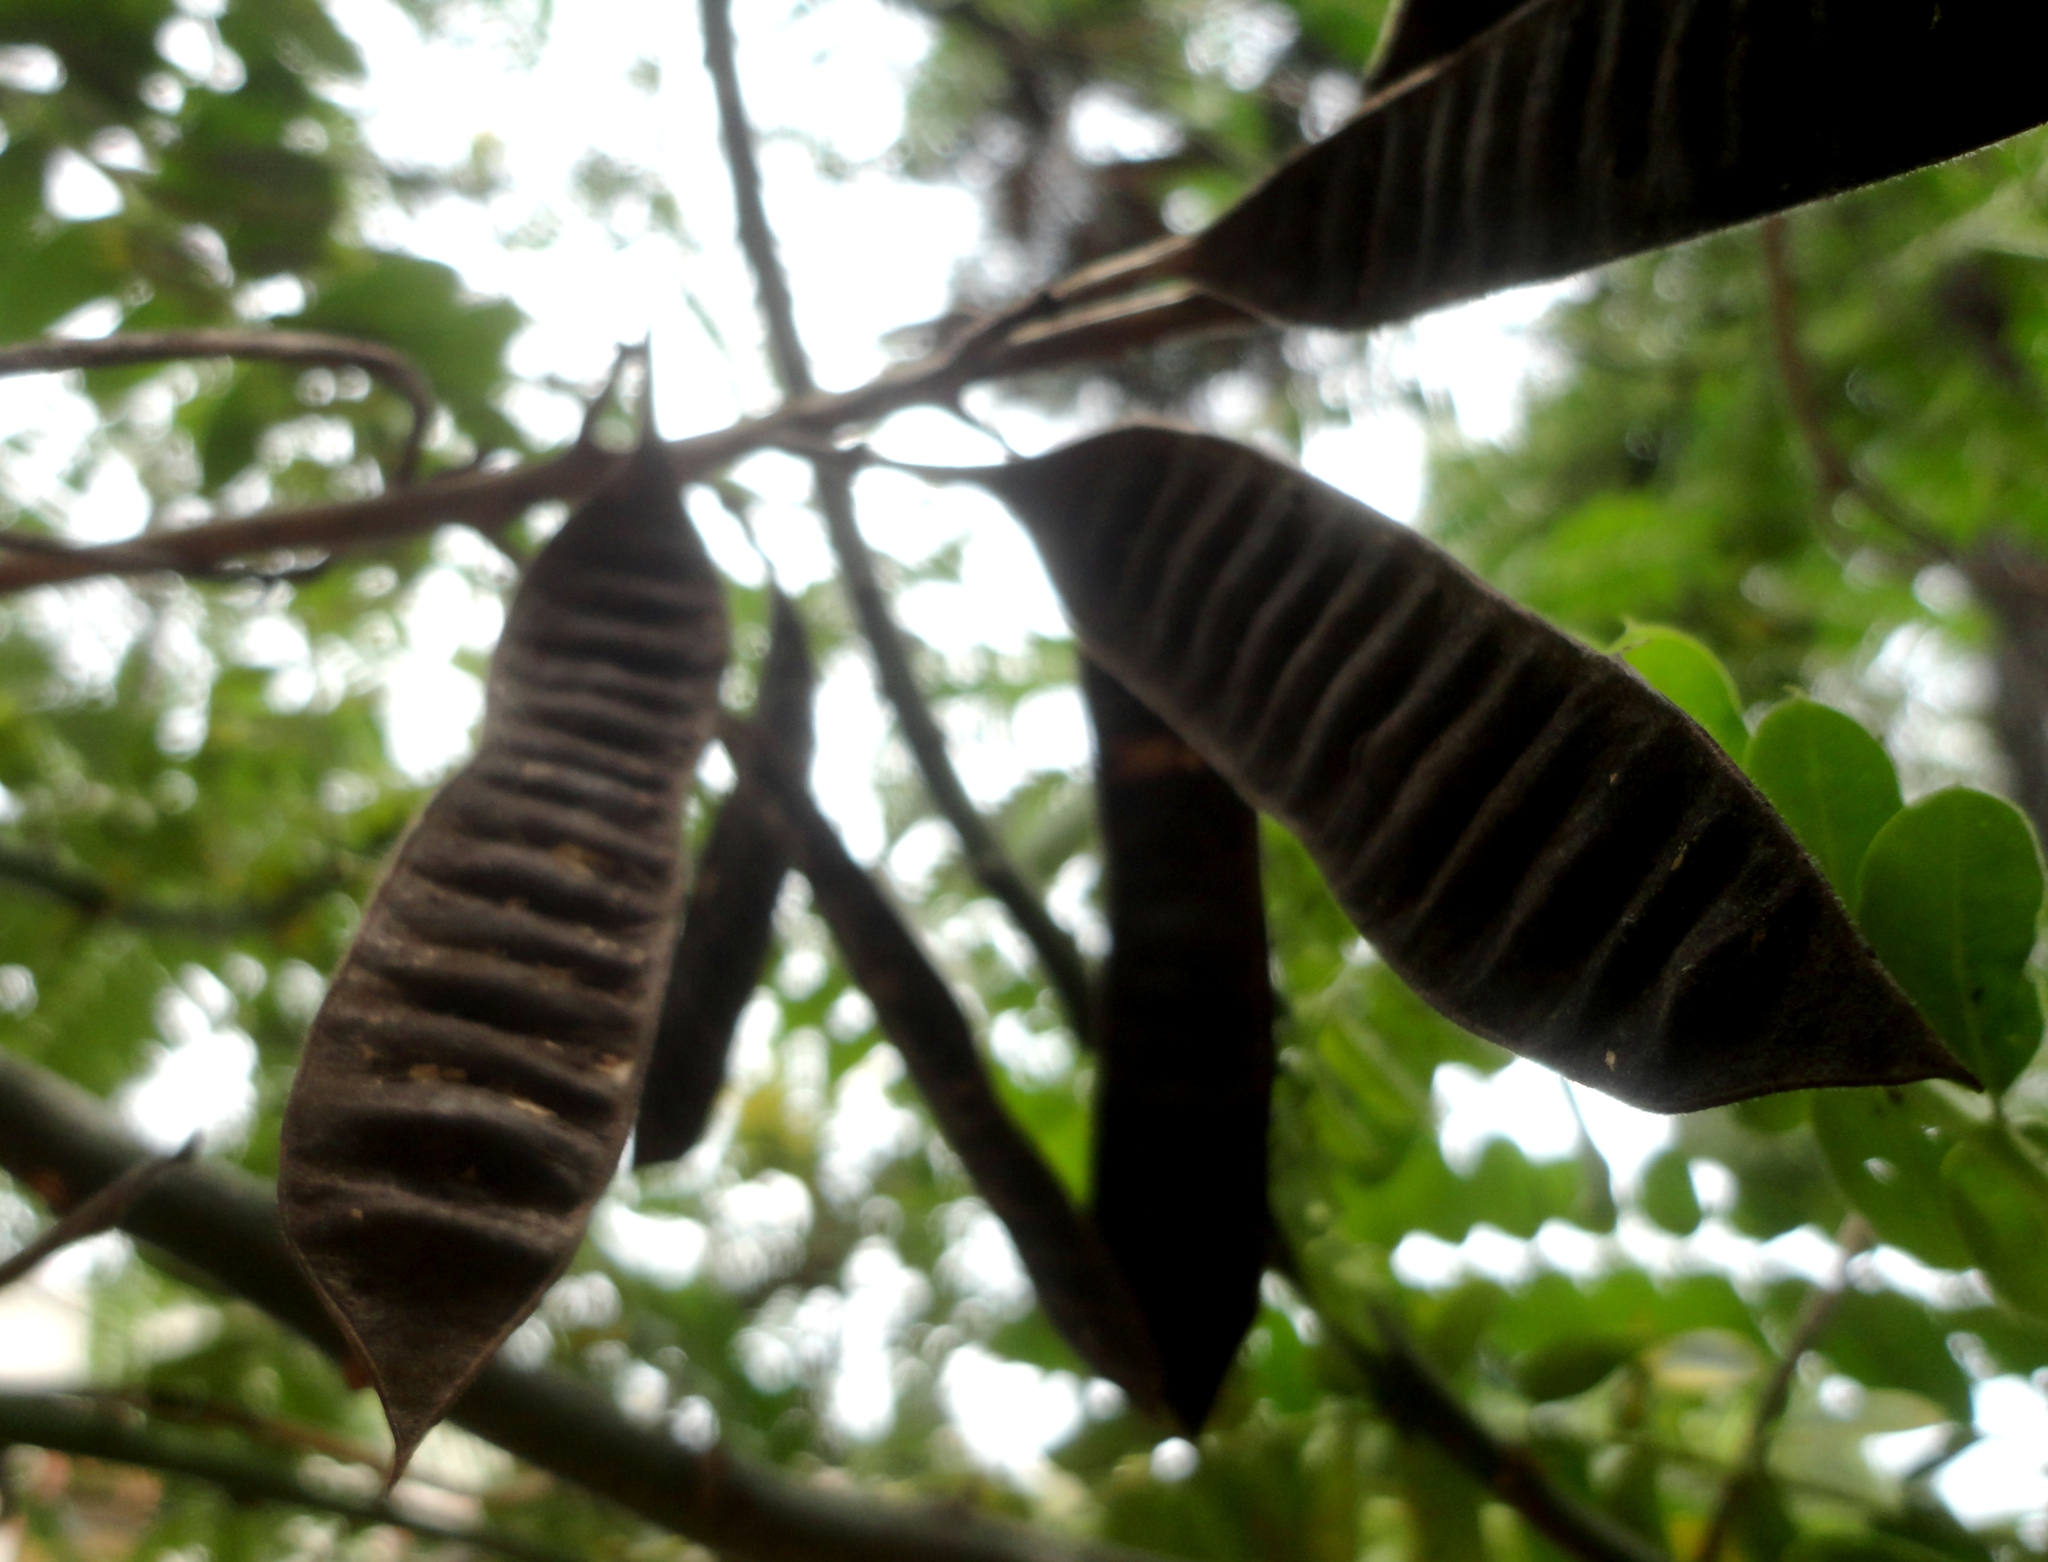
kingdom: Plantae
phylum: Tracheophyta
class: Magnoliopsida
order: Fabales
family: Fabaceae
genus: Senna
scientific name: Senna didymobotrya
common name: African senna
